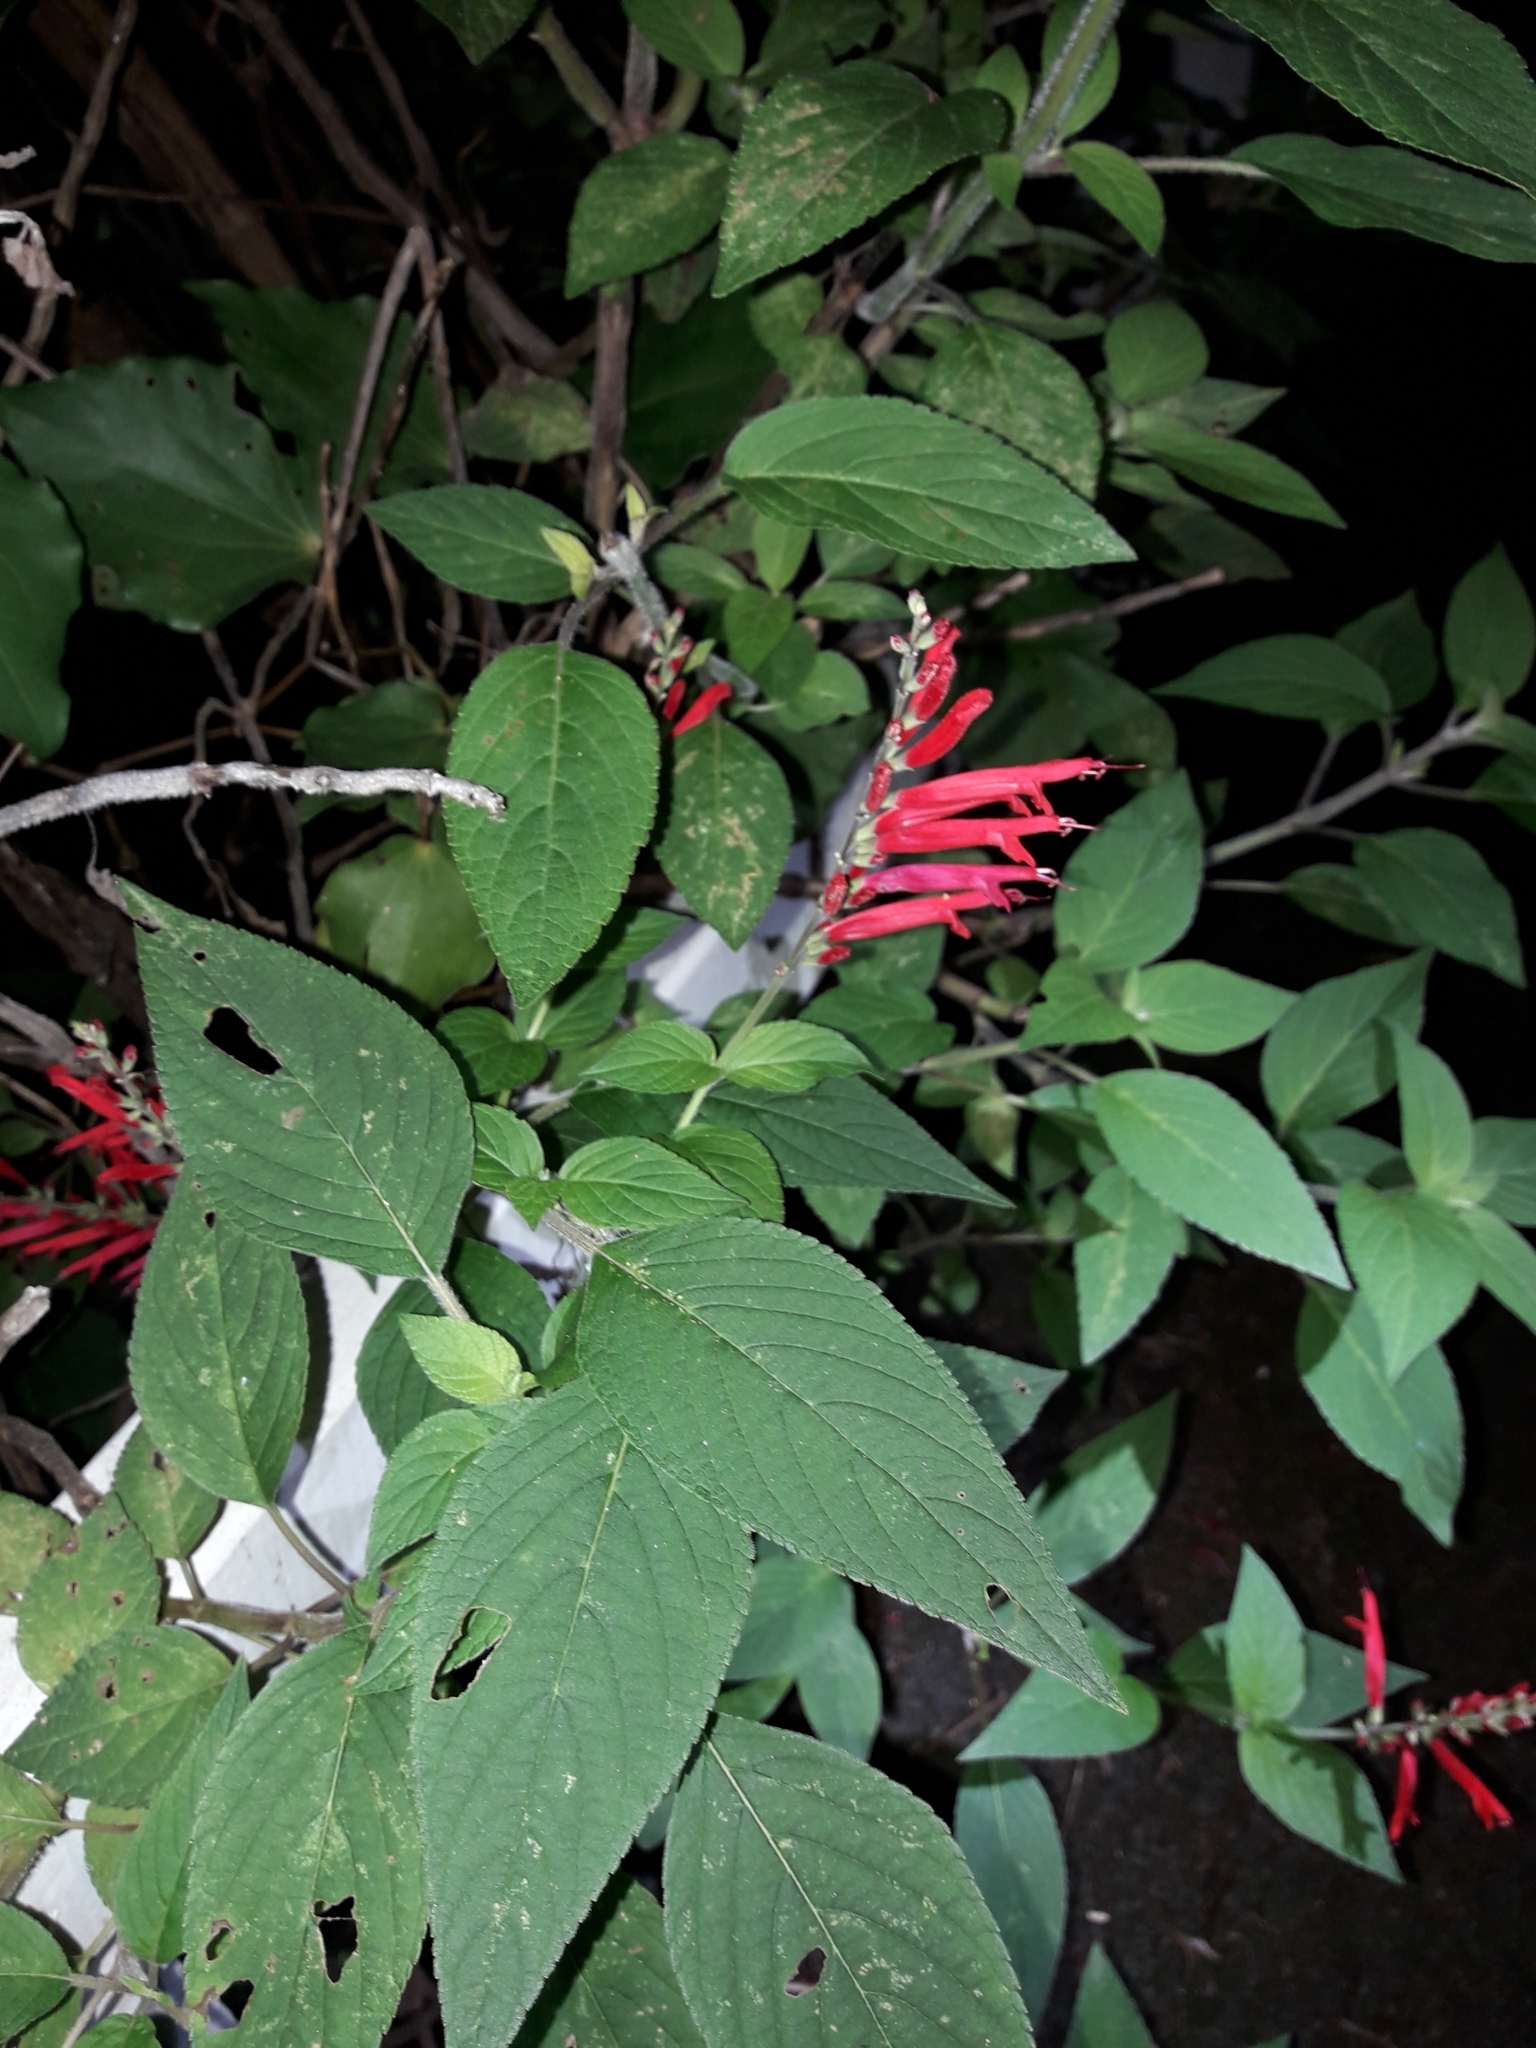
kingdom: Plantae
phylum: Tracheophyta
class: Magnoliopsida
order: Lamiales
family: Lamiaceae
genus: Salvia
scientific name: Salvia elegans
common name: Pineapple sage
